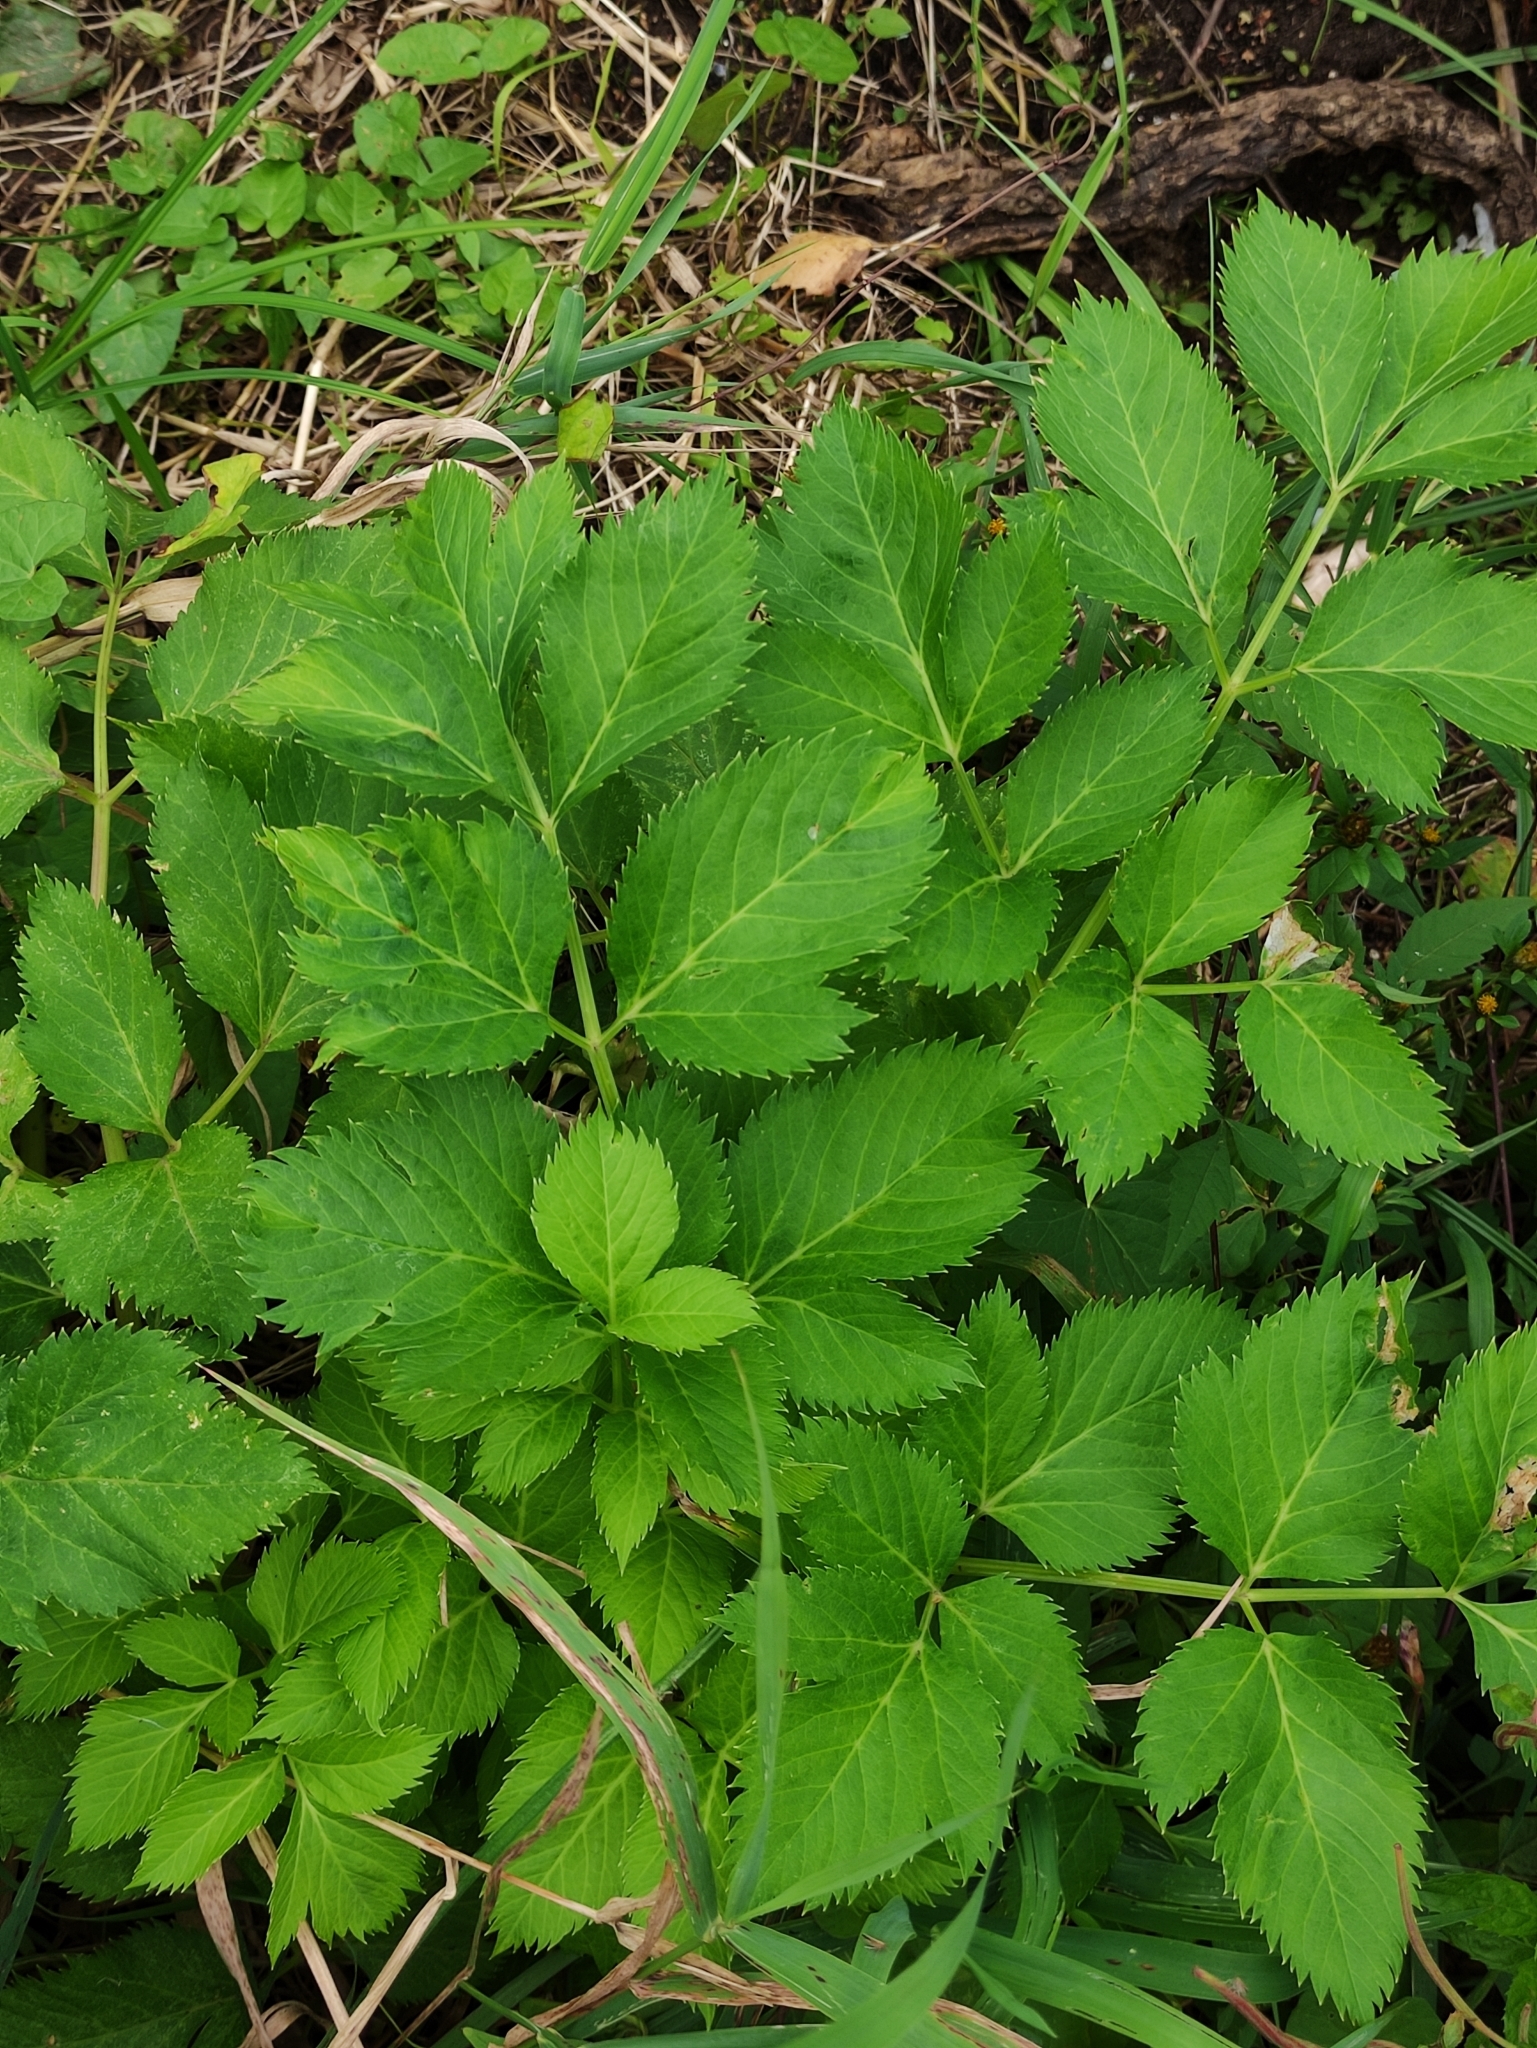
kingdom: Plantae
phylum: Tracheophyta
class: Magnoliopsida
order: Apiales
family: Apiaceae
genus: Angelica
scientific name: Angelica archangelica
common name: Garden angelica
